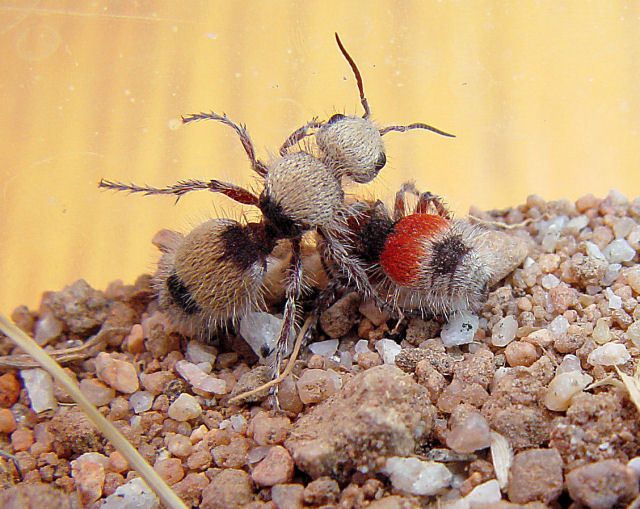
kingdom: Animalia
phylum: Arthropoda
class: Insecta
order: Hymenoptera
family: Mutillidae
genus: Dasymutilla
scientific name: Dasymutilla foxi
